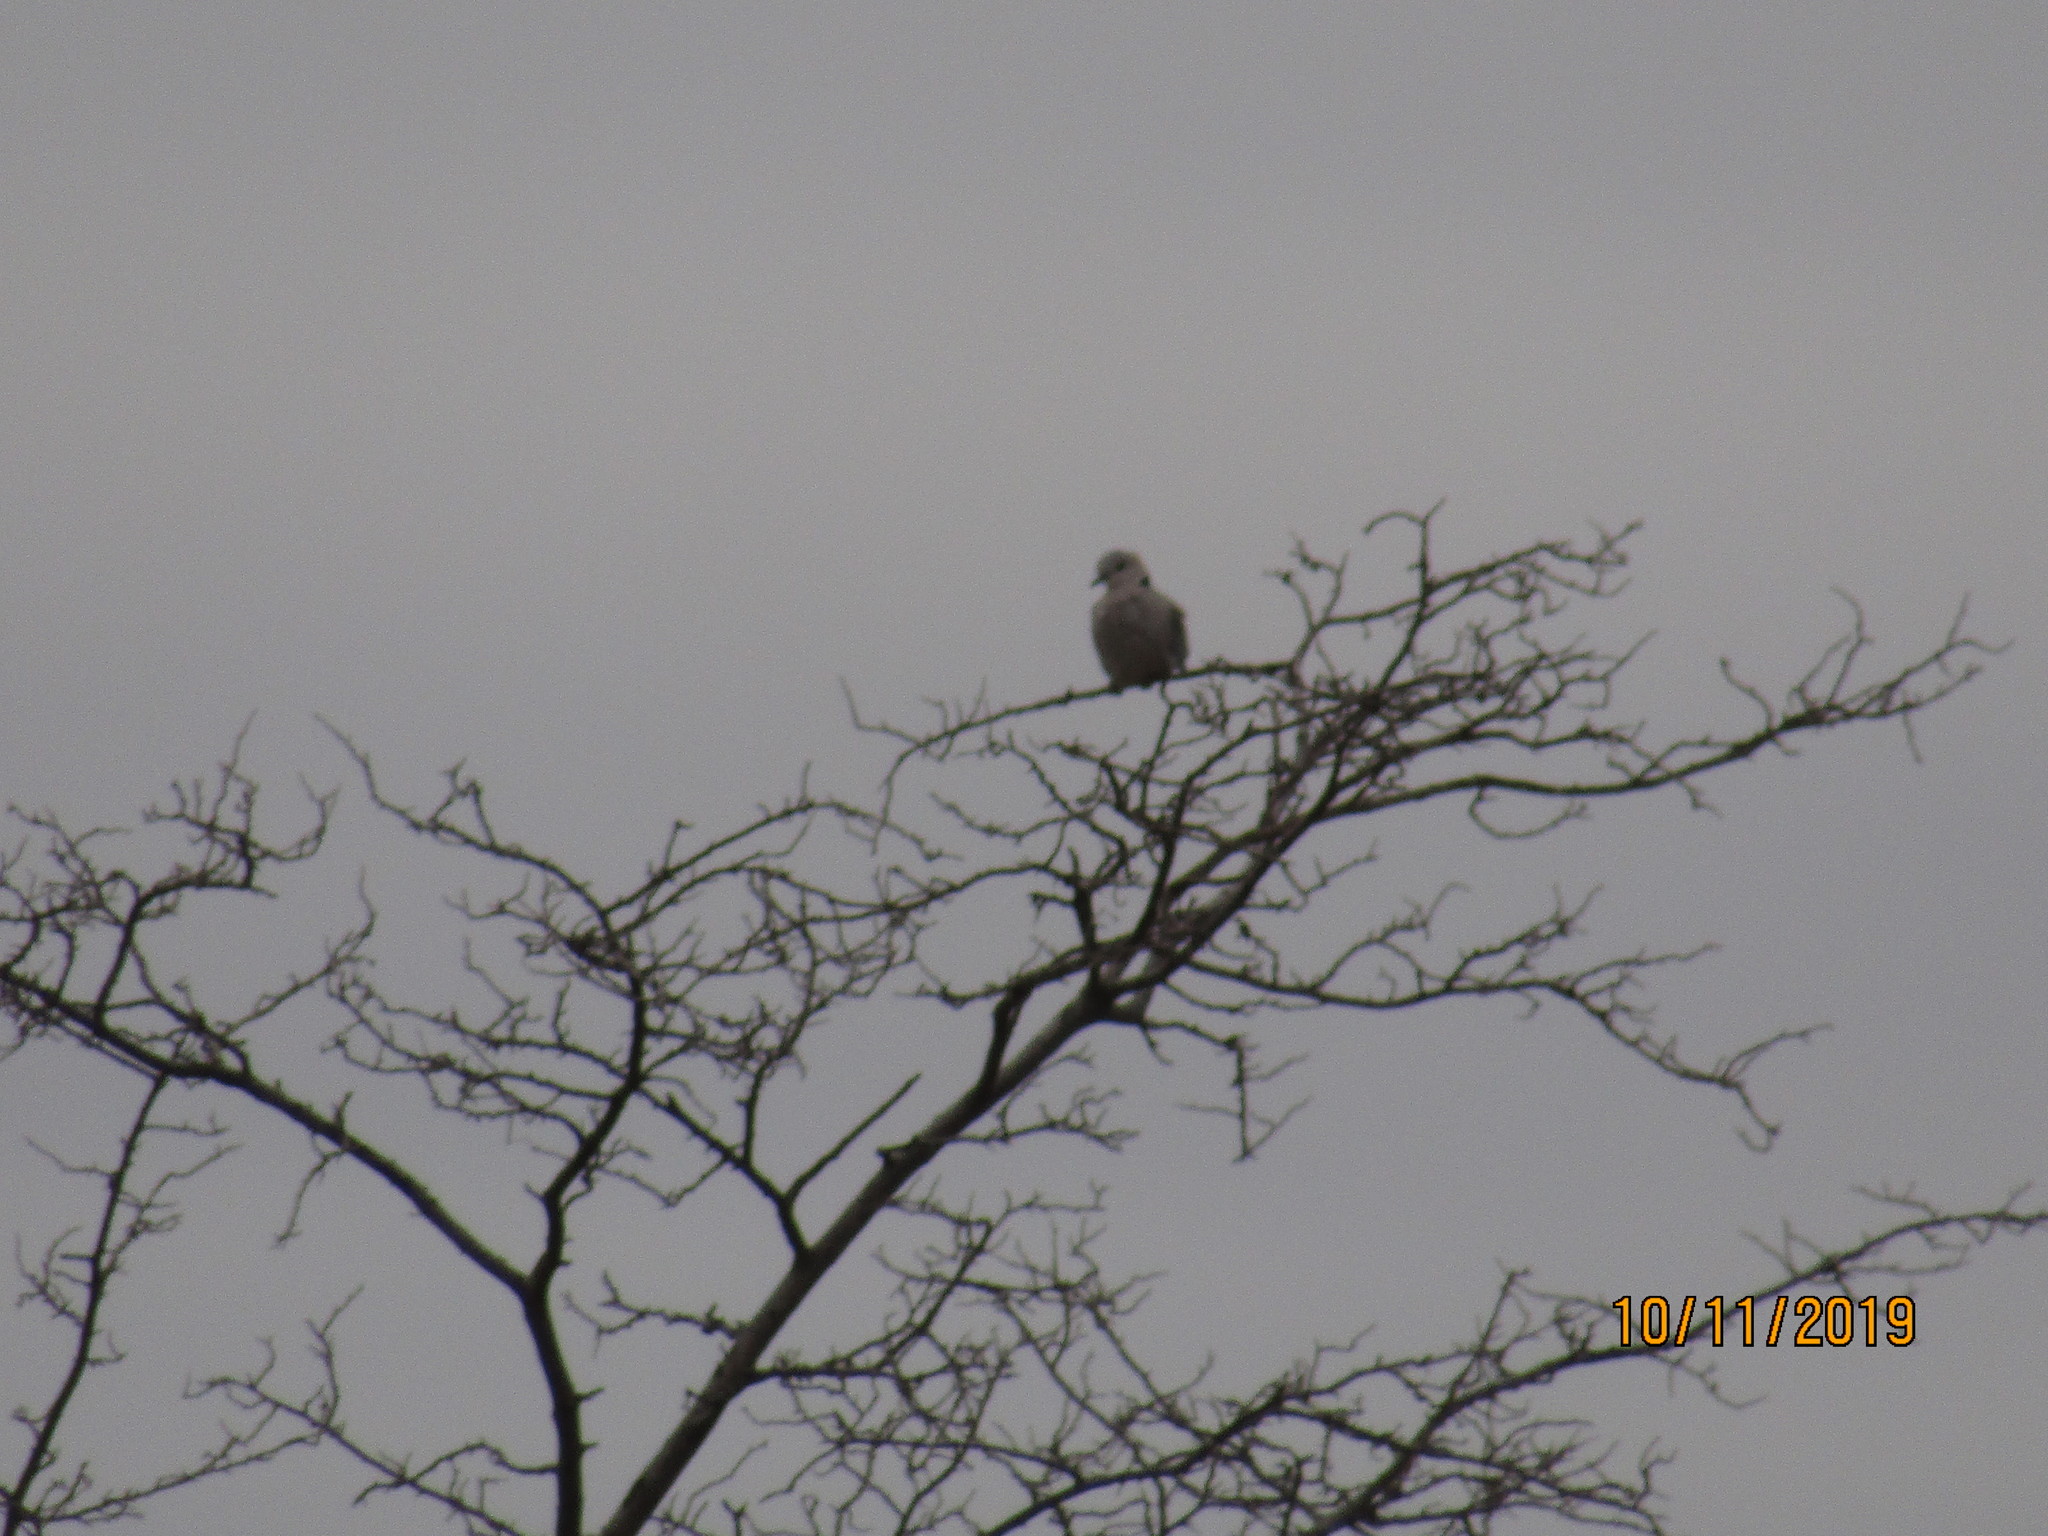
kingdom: Animalia
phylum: Chordata
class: Aves
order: Columbiformes
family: Columbidae
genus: Streptopelia
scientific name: Streptopelia capicola
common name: Ring-necked dove
